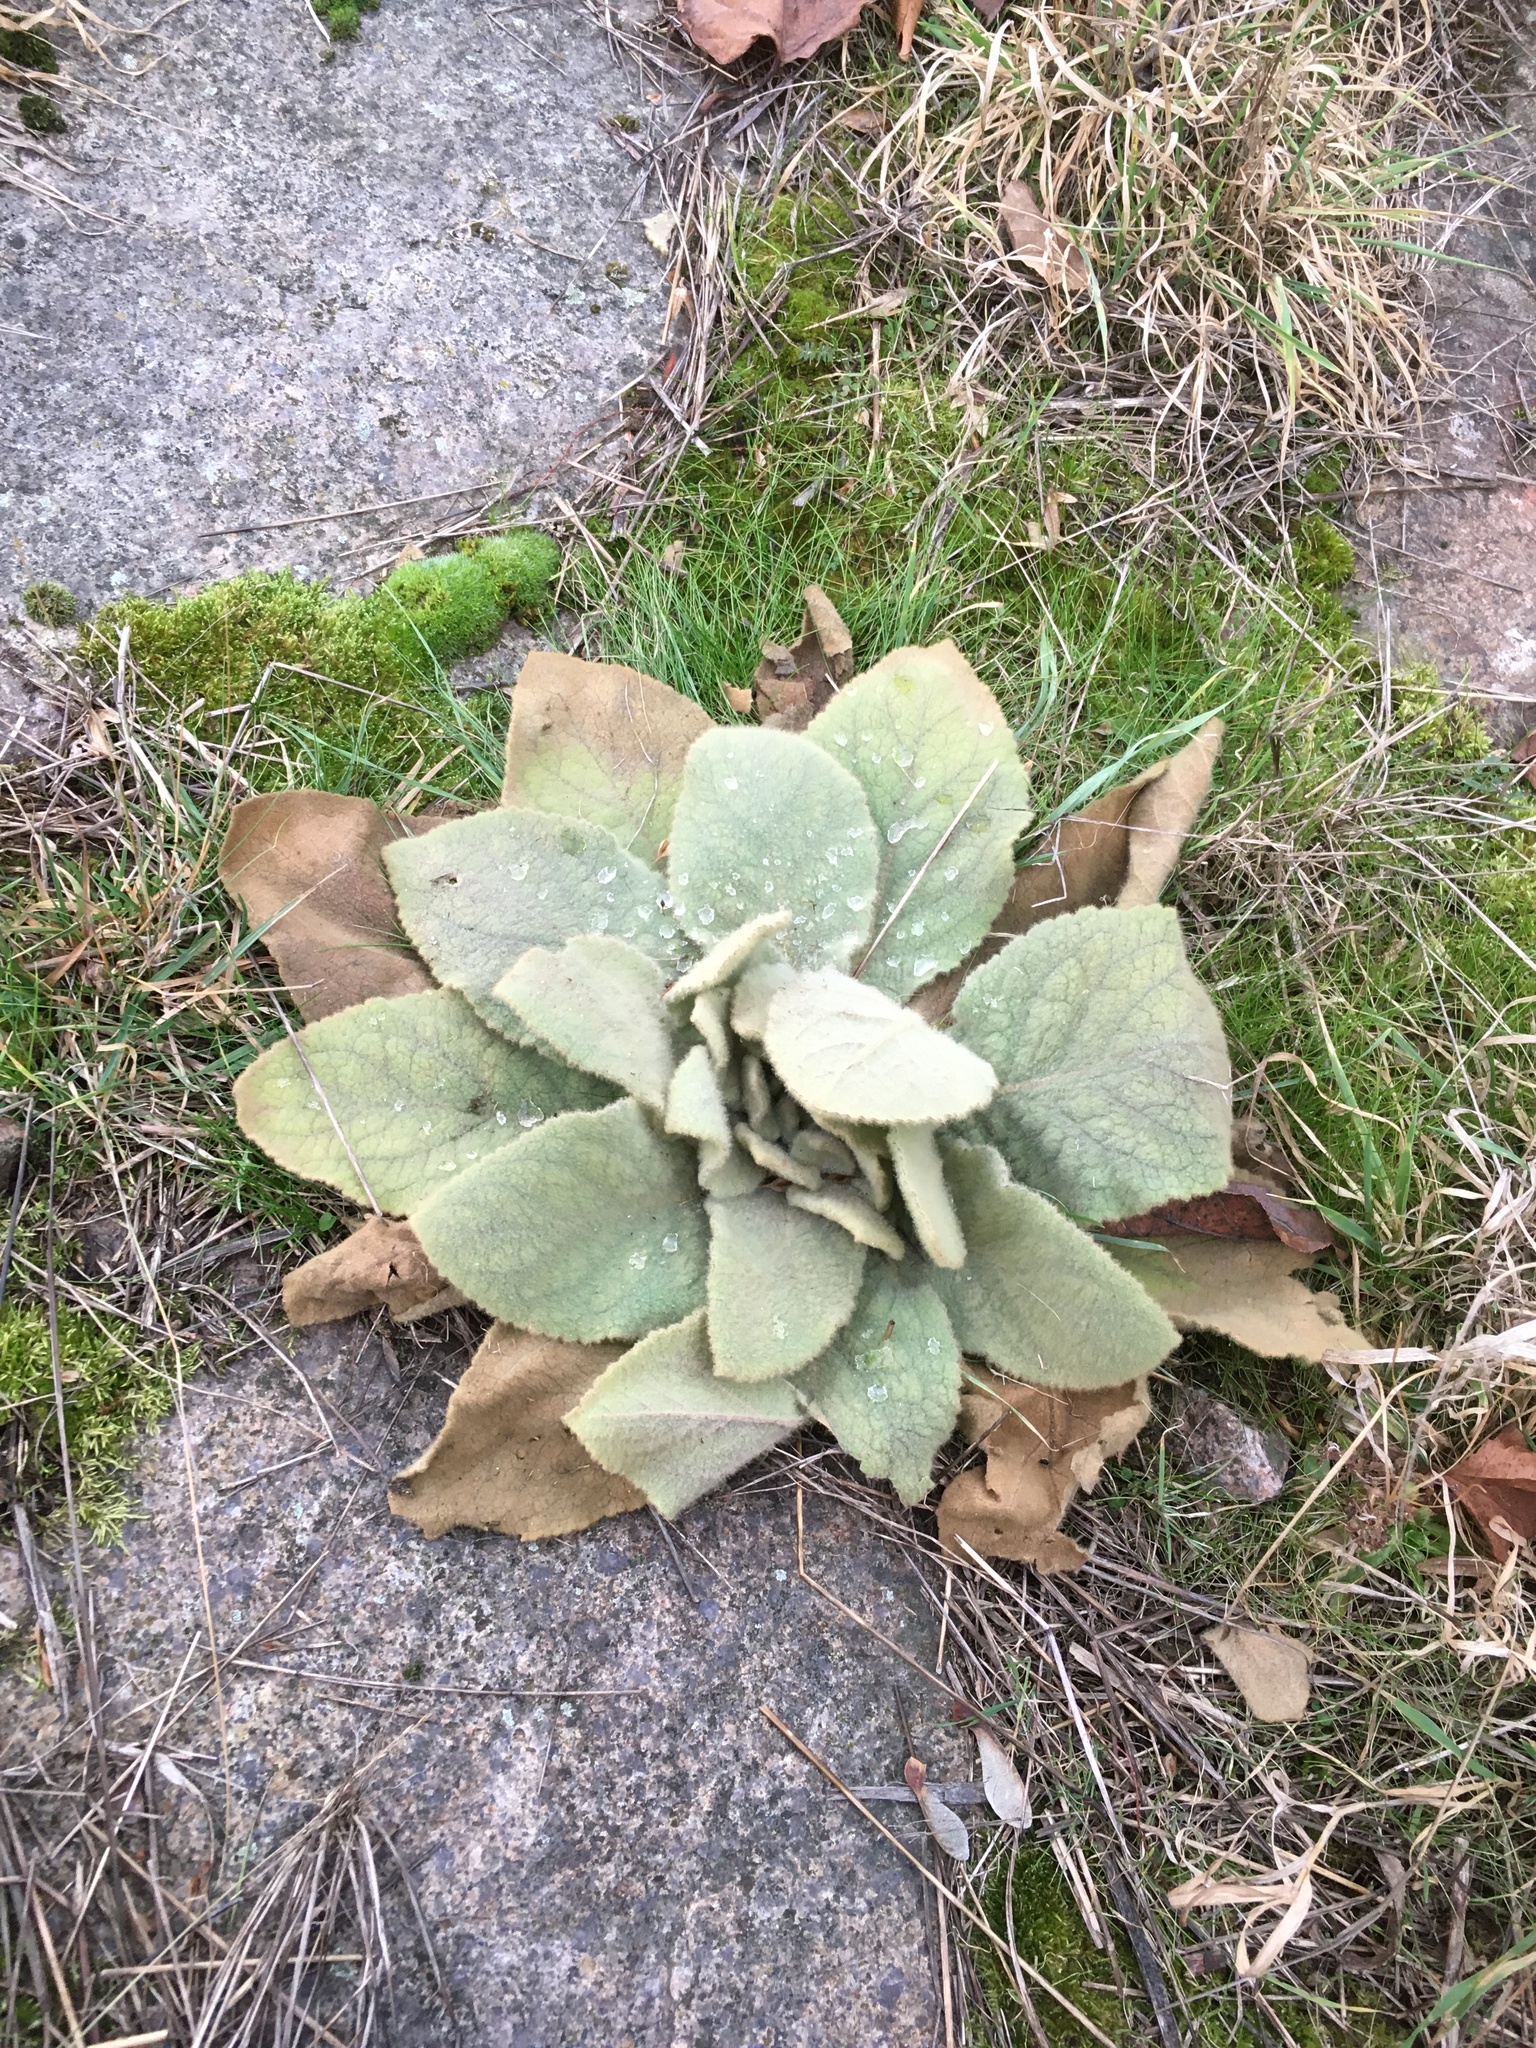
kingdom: Plantae
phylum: Tracheophyta
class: Magnoliopsida
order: Lamiales
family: Scrophulariaceae
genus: Verbascum
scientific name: Verbascum thapsus
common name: Common mullein
